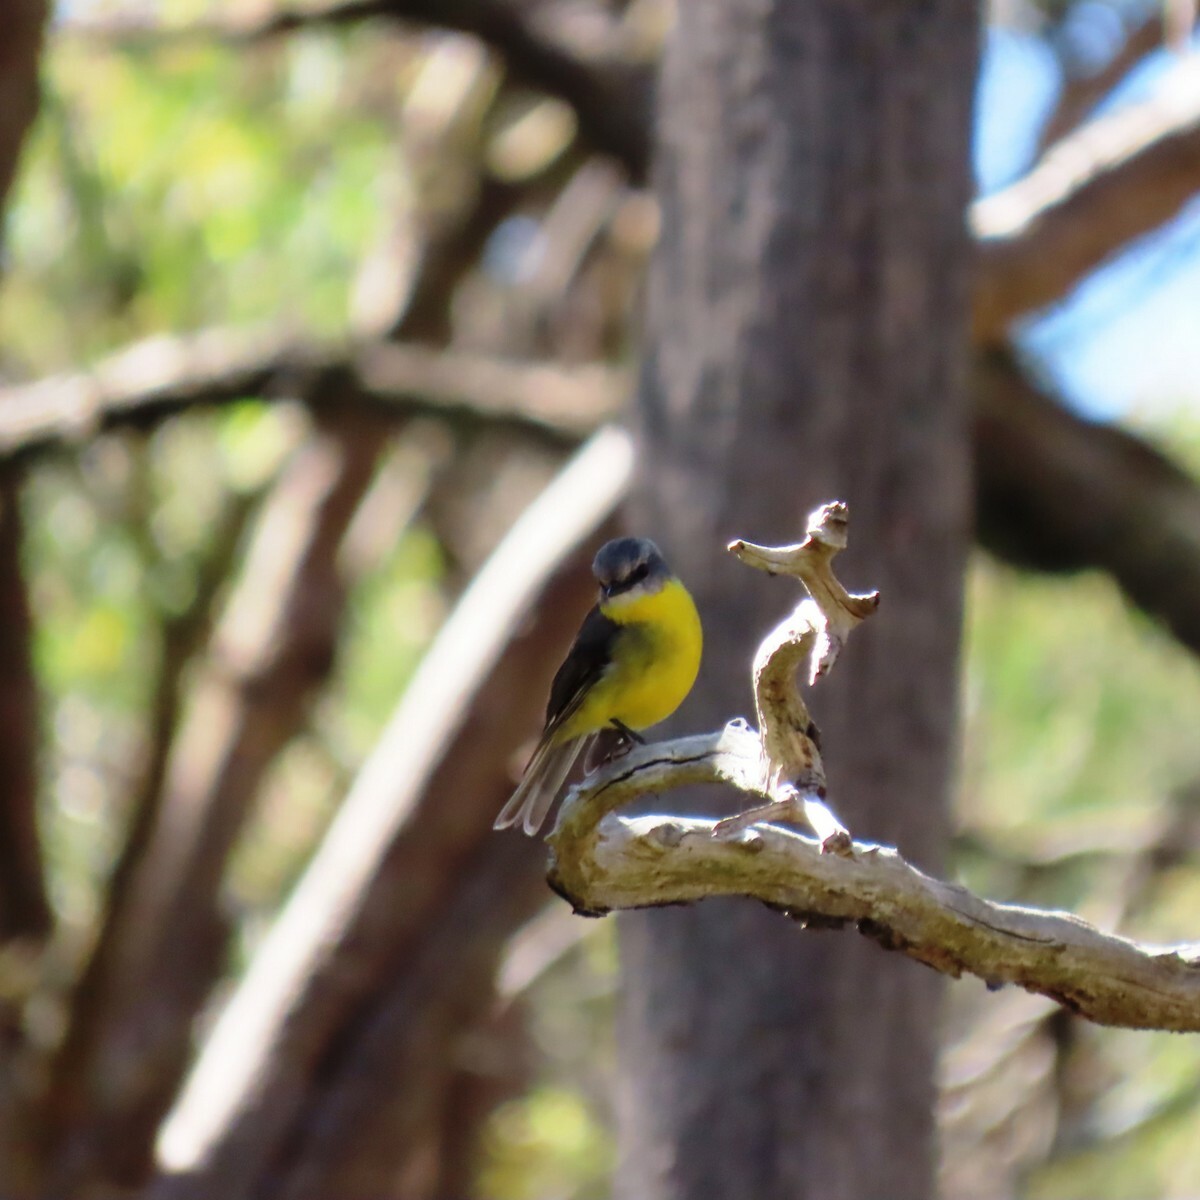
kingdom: Animalia
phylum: Chordata
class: Aves
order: Passeriformes
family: Petroicidae
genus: Eopsaltria
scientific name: Eopsaltria australis
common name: Eastern yellow robin
